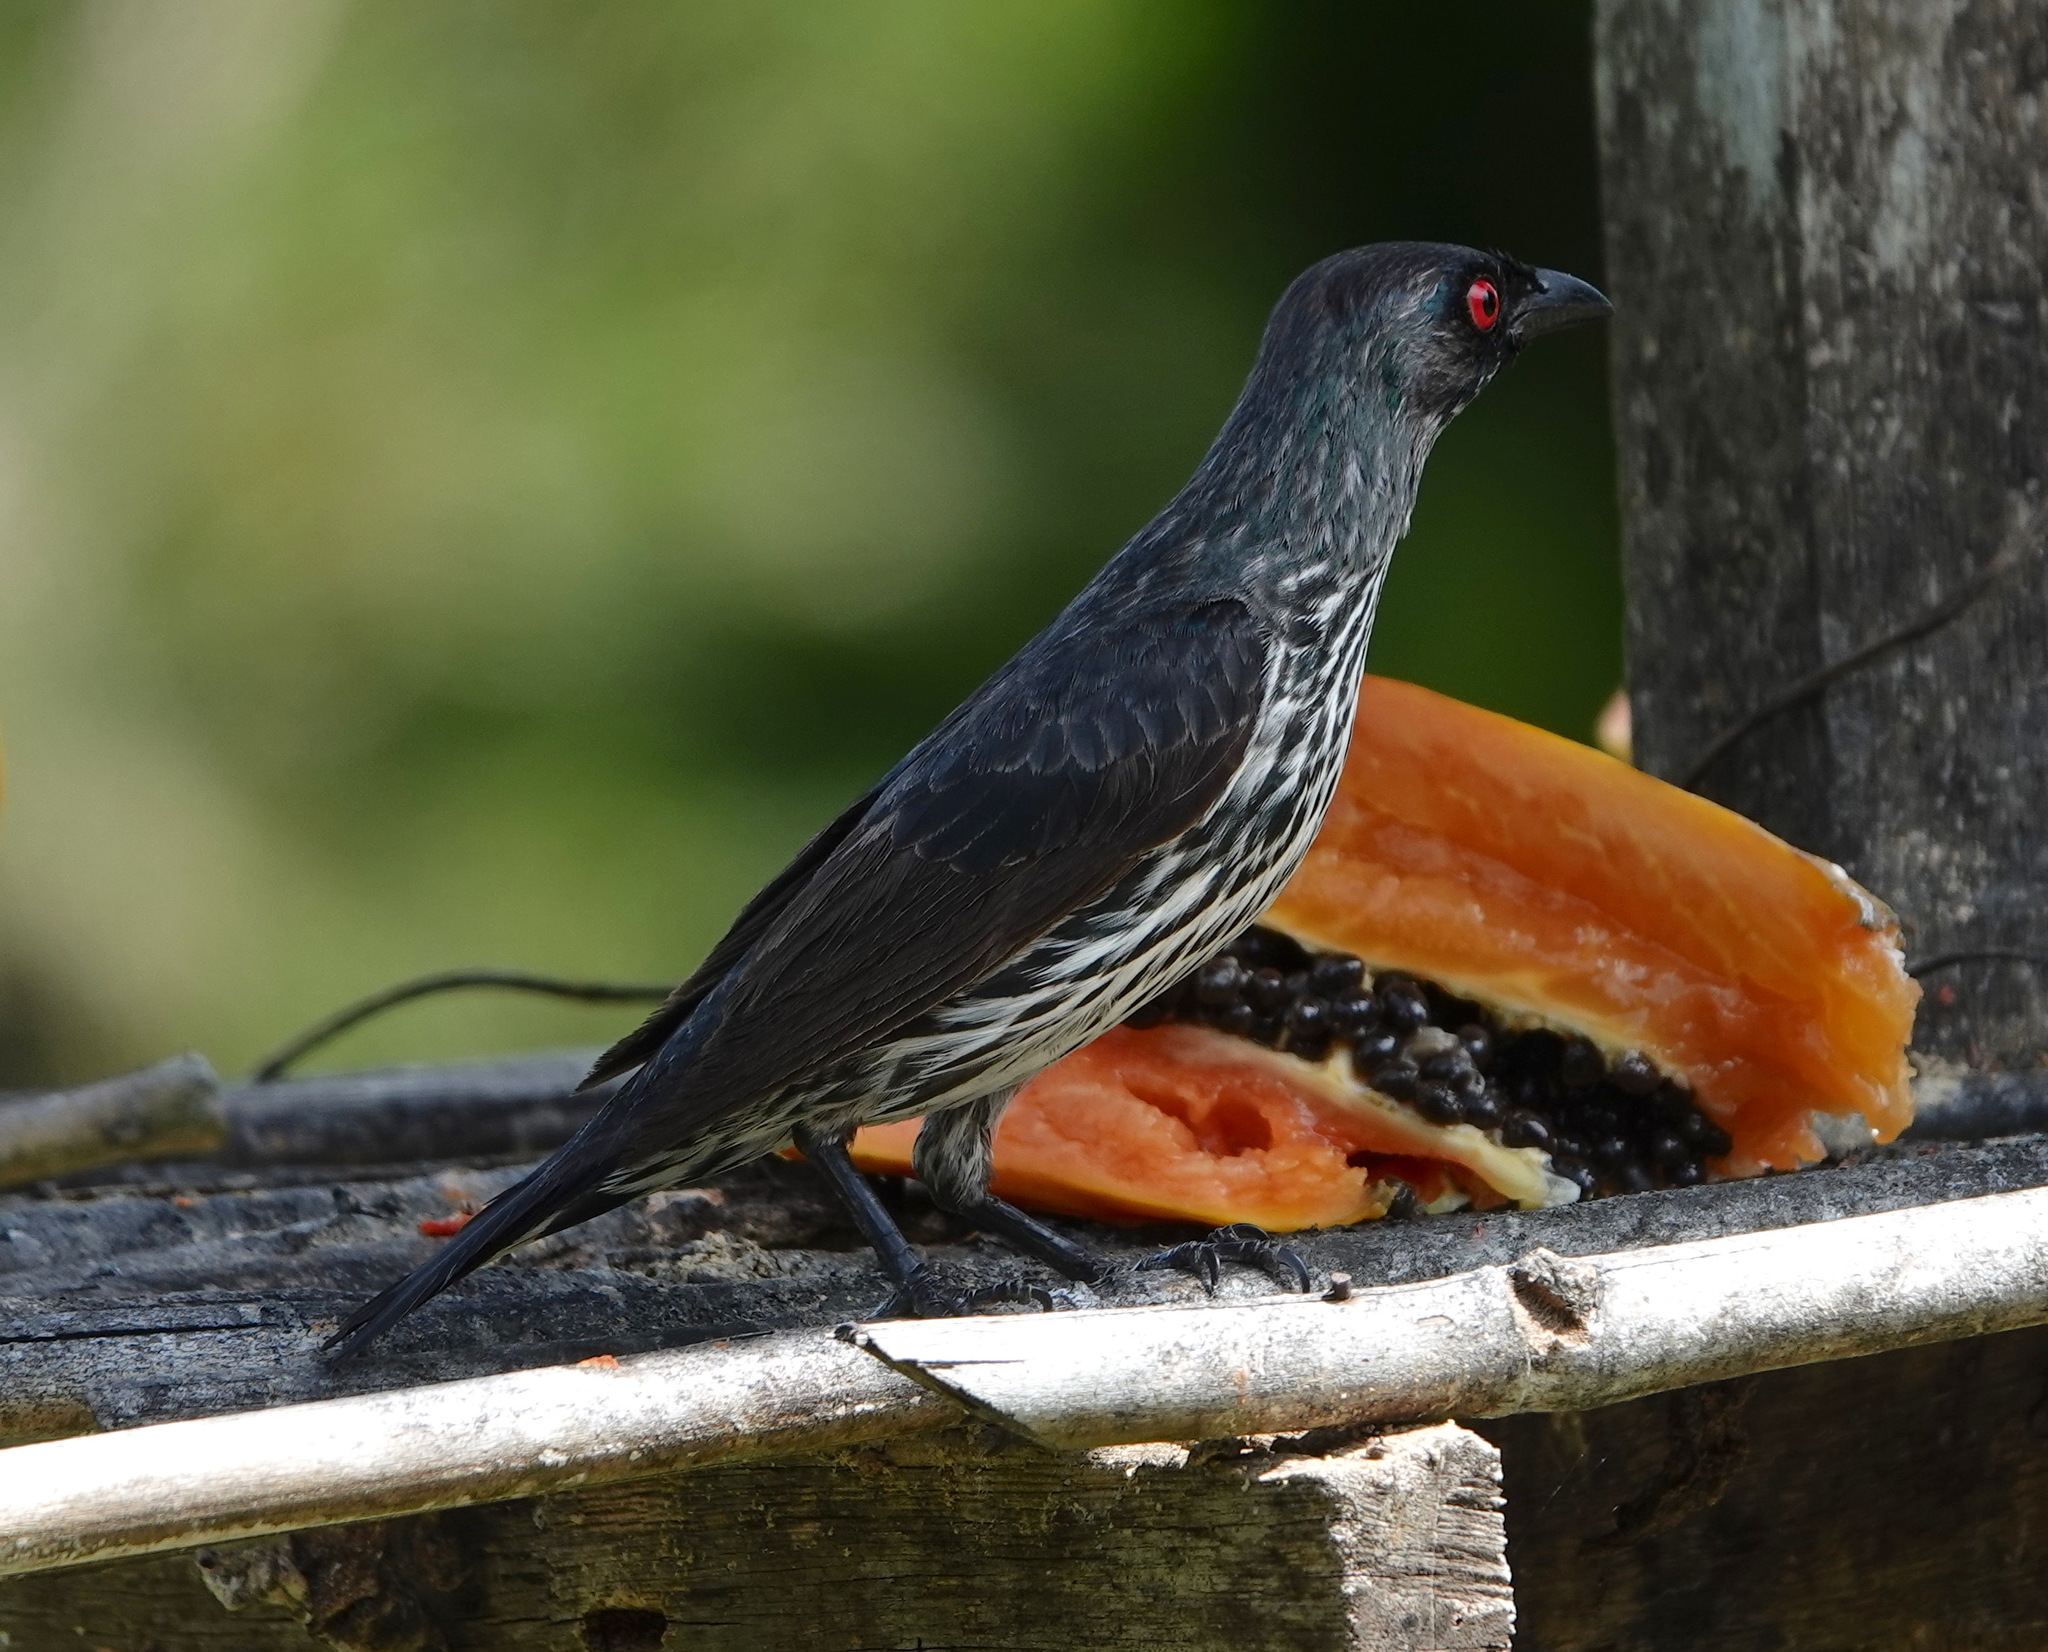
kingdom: Animalia
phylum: Chordata
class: Aves
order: Passeriformes
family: Sturnidae
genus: Aplonis
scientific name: Aplonis panayensis
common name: Asian glossy starling
